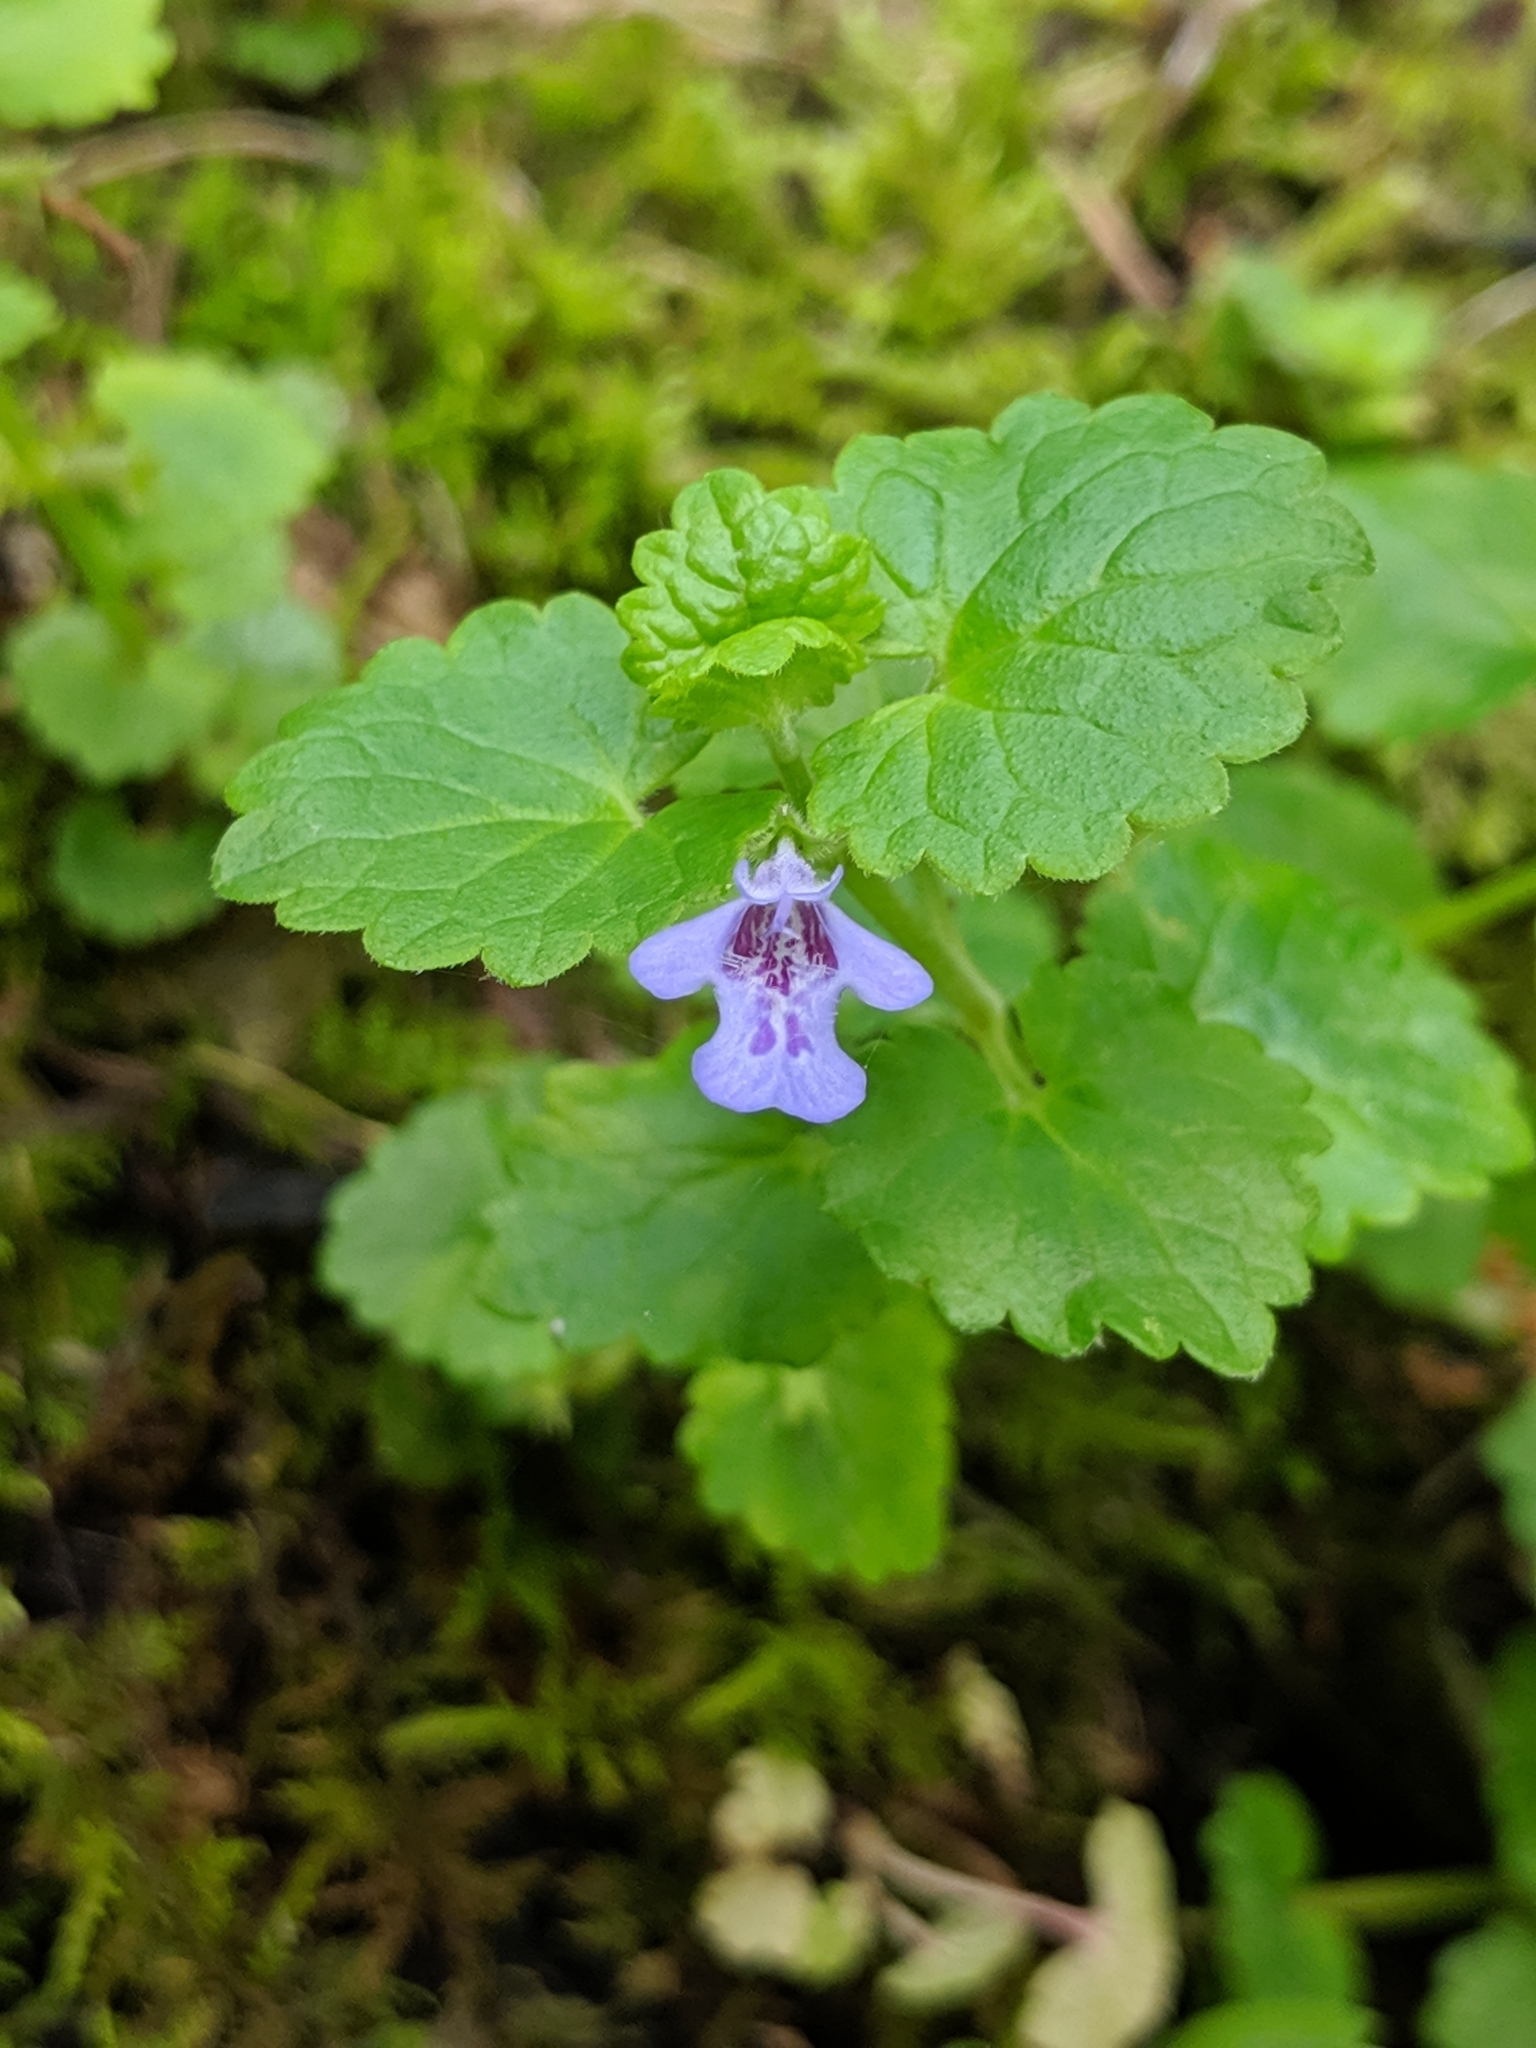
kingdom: Plantae
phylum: Tracheophyta
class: Magnoliopsida
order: Lamiales
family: Lamiaceae
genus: Glechoma
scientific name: Glechoma hederacea
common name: Ground ivy
